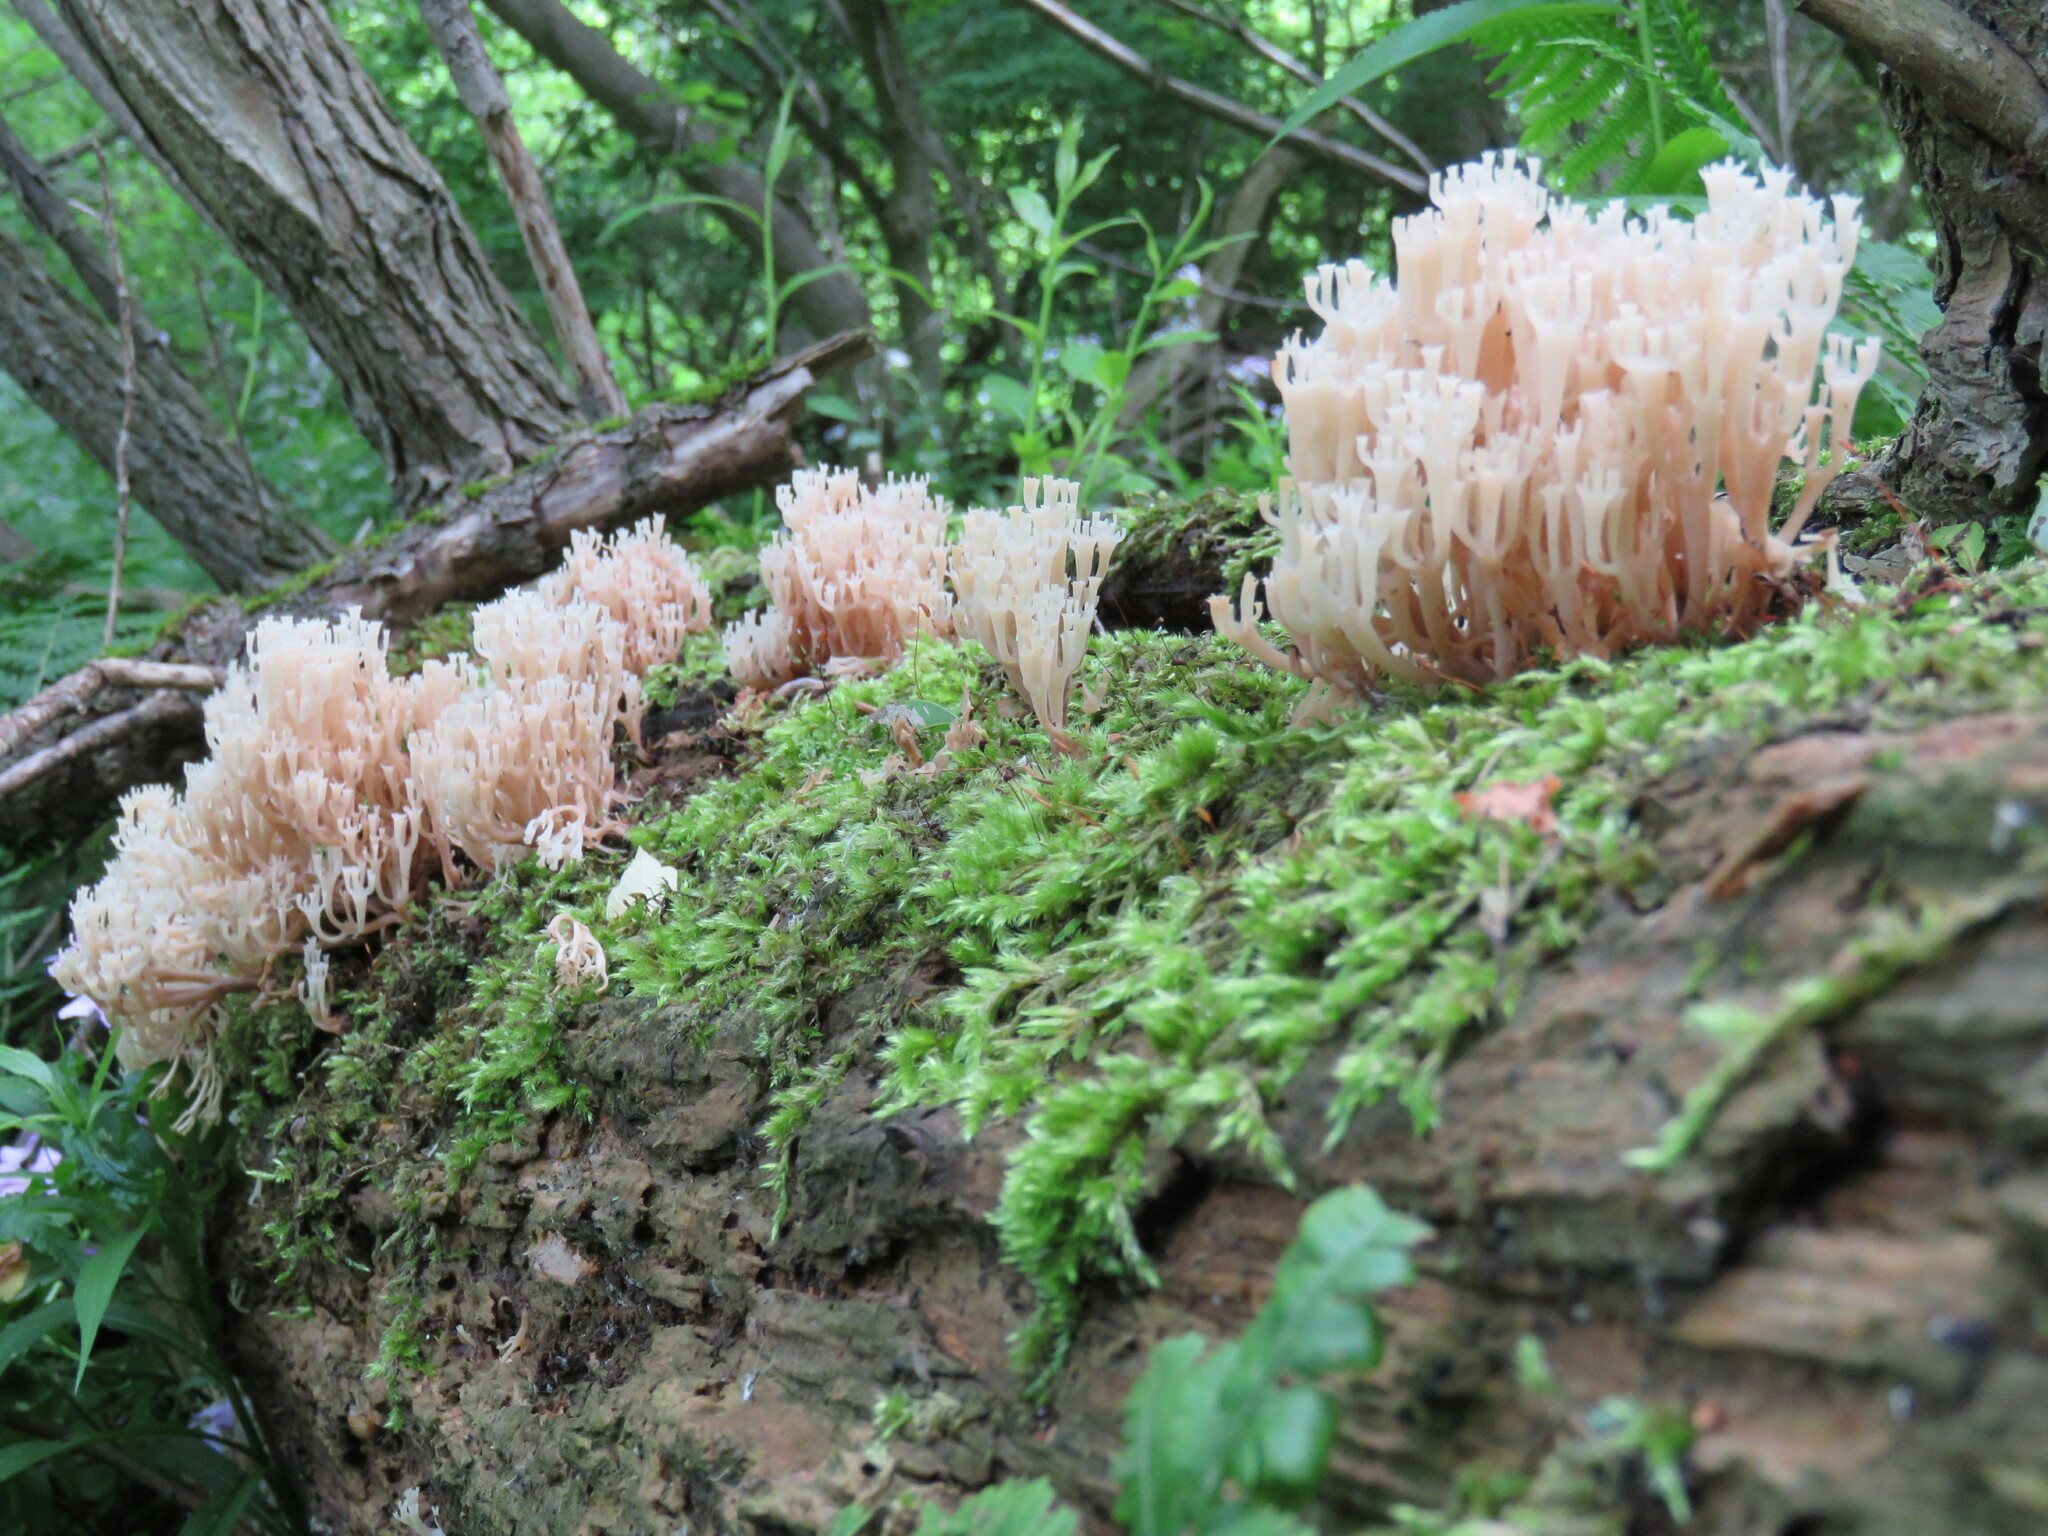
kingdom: Fungi
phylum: Basidiomycota
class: Agaricomycetes
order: Russulales
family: Auriscalpiaceae
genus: Artomyces
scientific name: Artomyces pyxidatus
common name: Crown-tipped coral fungus
